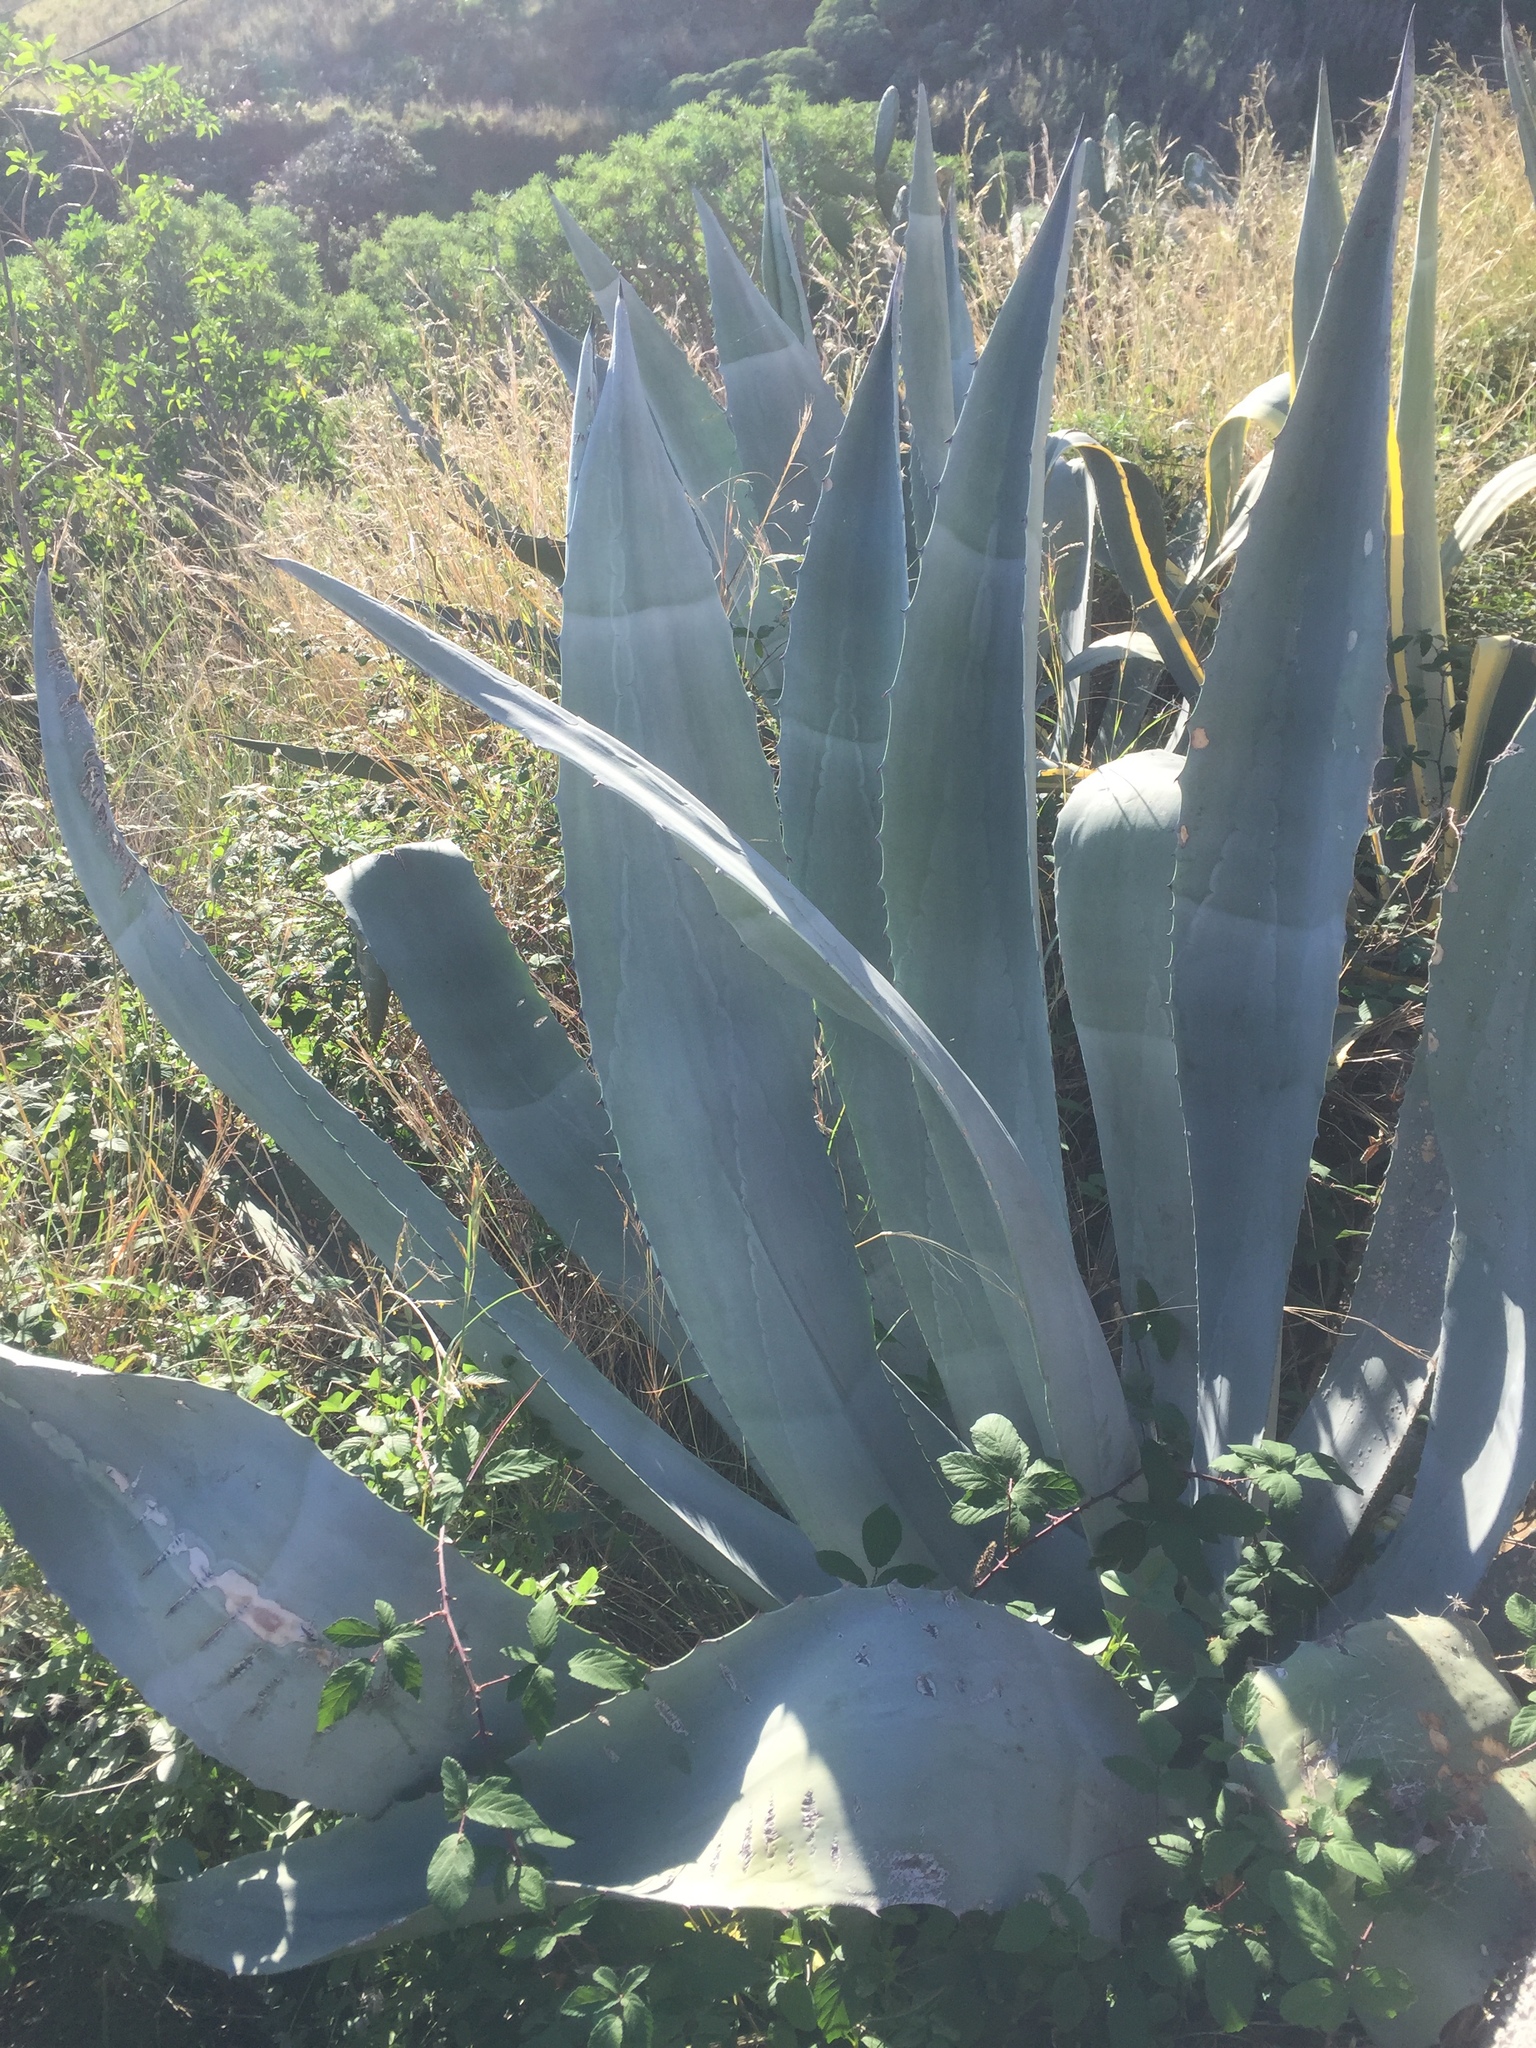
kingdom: Plantae
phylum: Tracheophyta
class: Liliopsida
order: Asparagales
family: Asparagaceae
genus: Agave
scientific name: Agave americana
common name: Centuryplant
